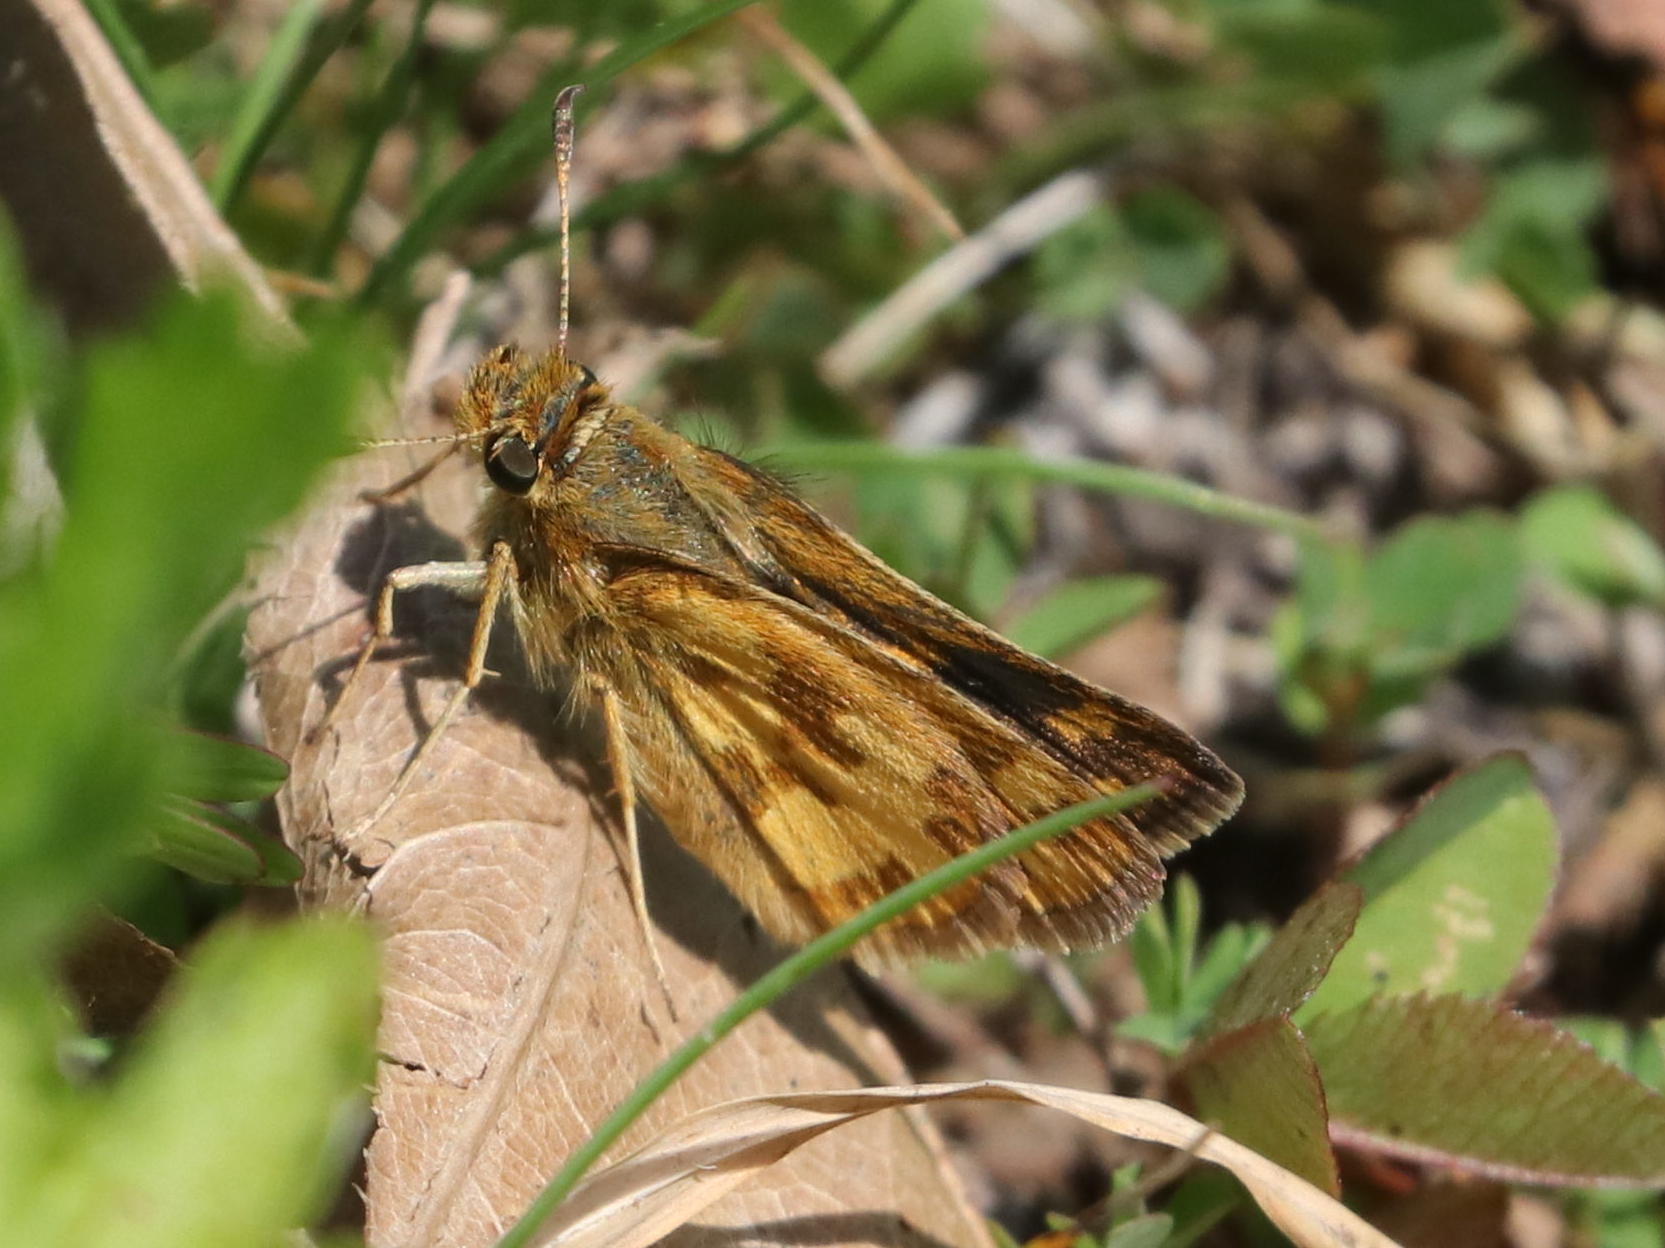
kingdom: Animalia
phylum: Arthropoda
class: Insecta
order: Lepidoptera
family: Hesperiidae
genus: Polites
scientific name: Polites coras
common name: Peck's skipper
